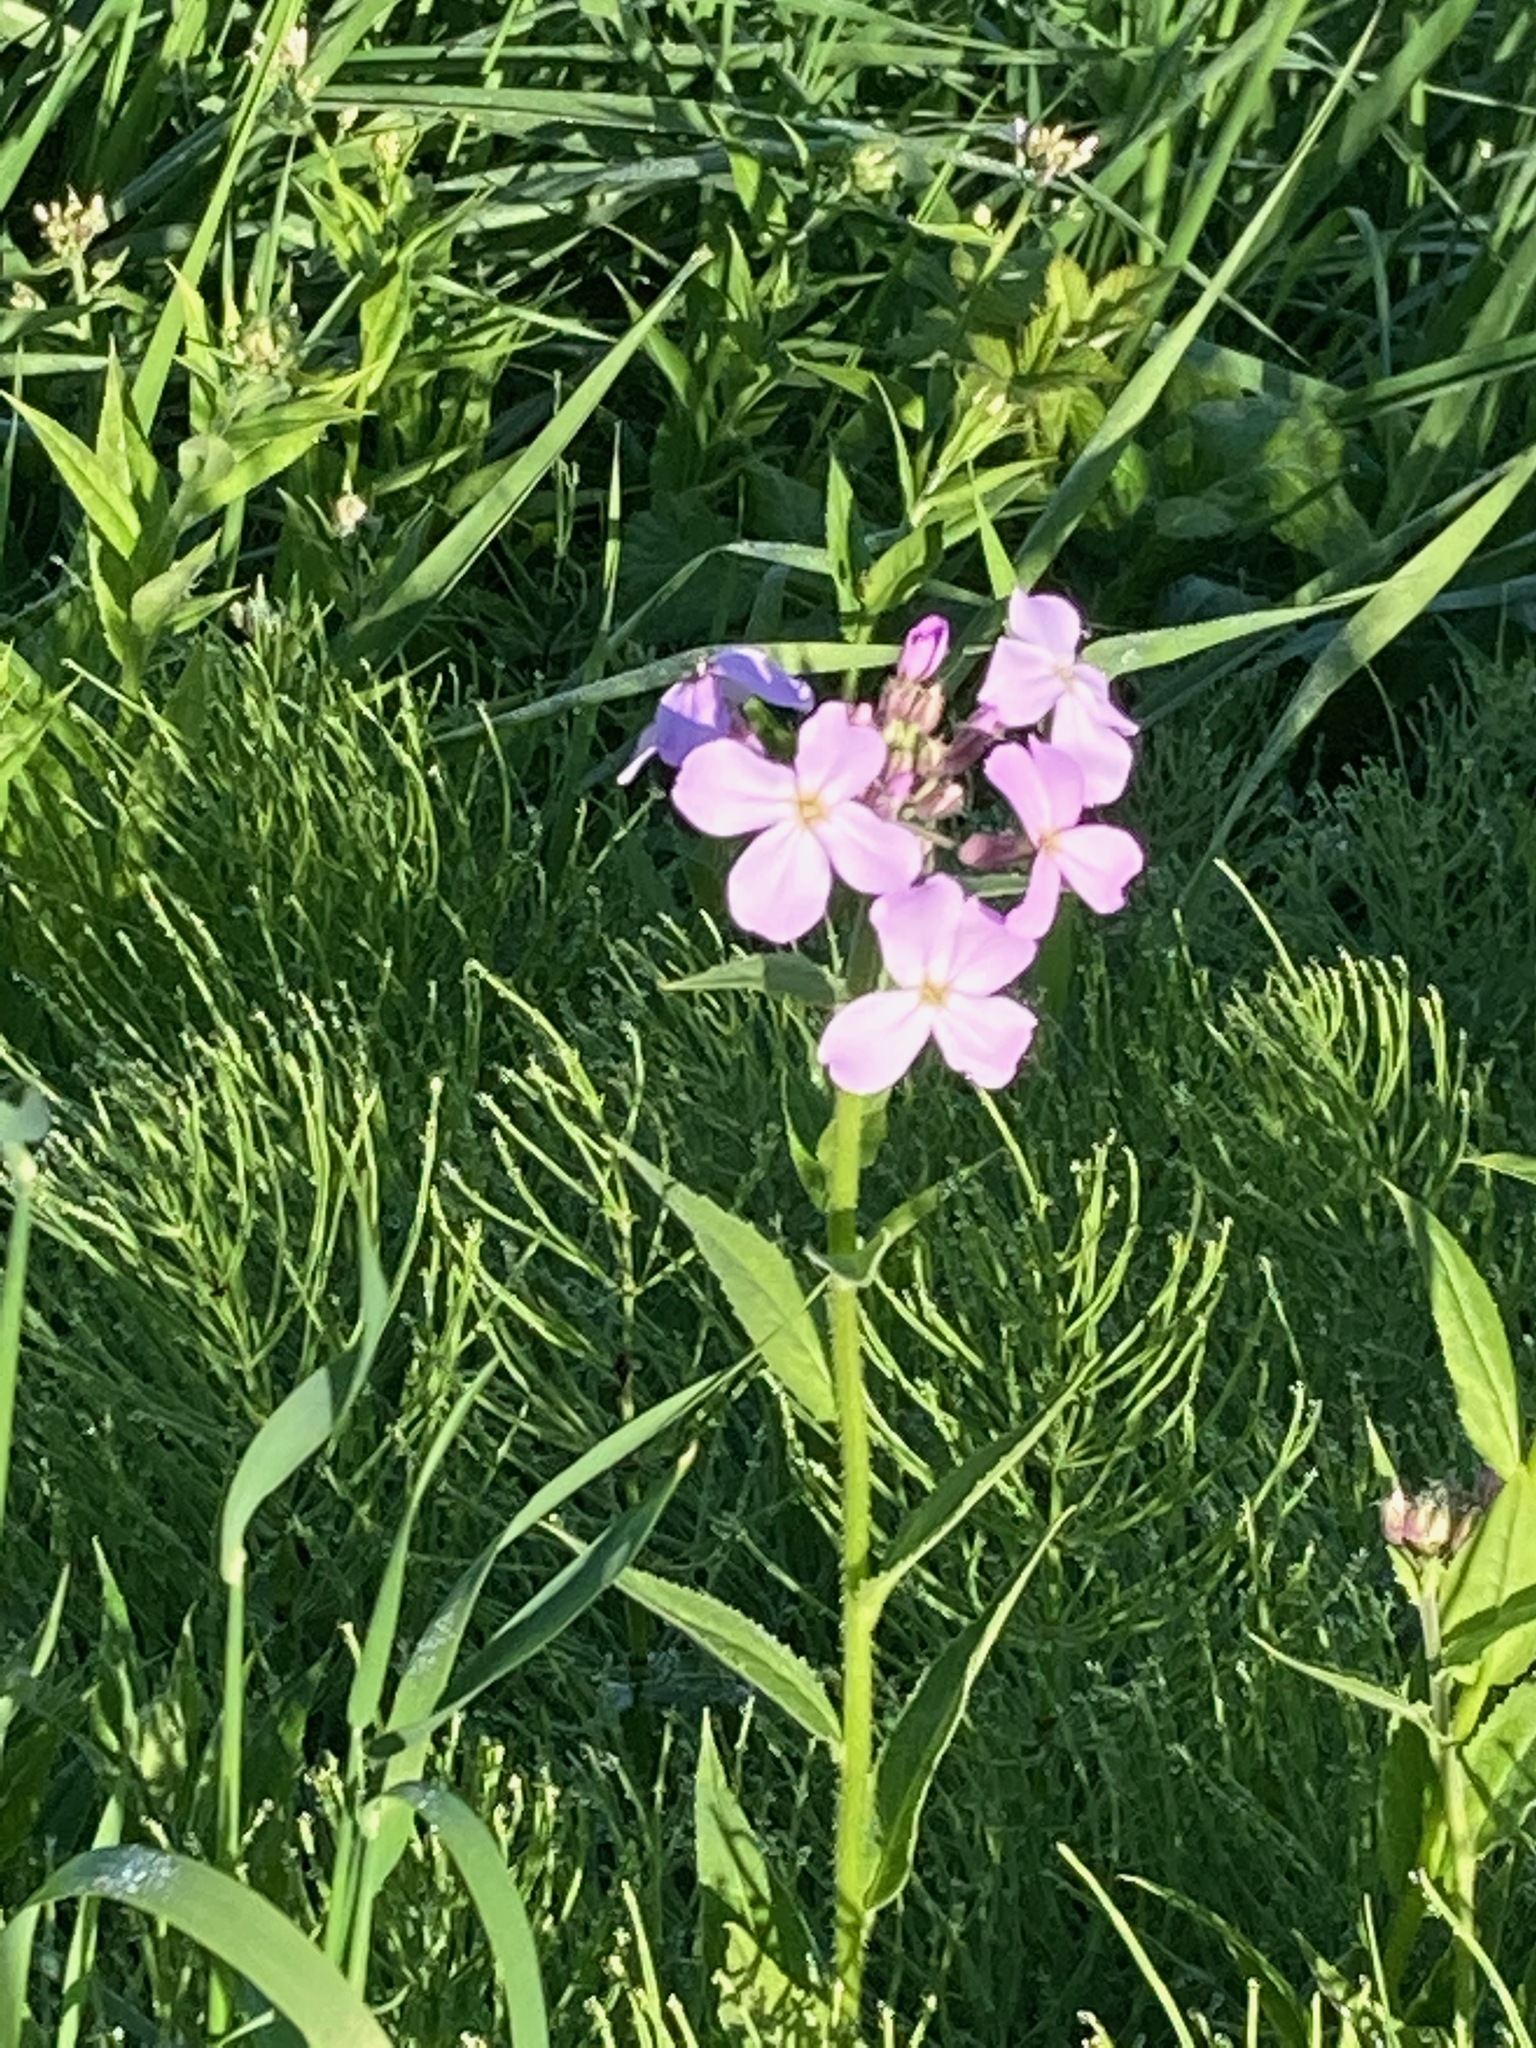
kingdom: Plantae
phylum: Tracheophyta
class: Magnoliopsida
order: Brassicales
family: Brassicaceae
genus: Hesperis
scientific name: Hesperis matronalis
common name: Dame's-violet
